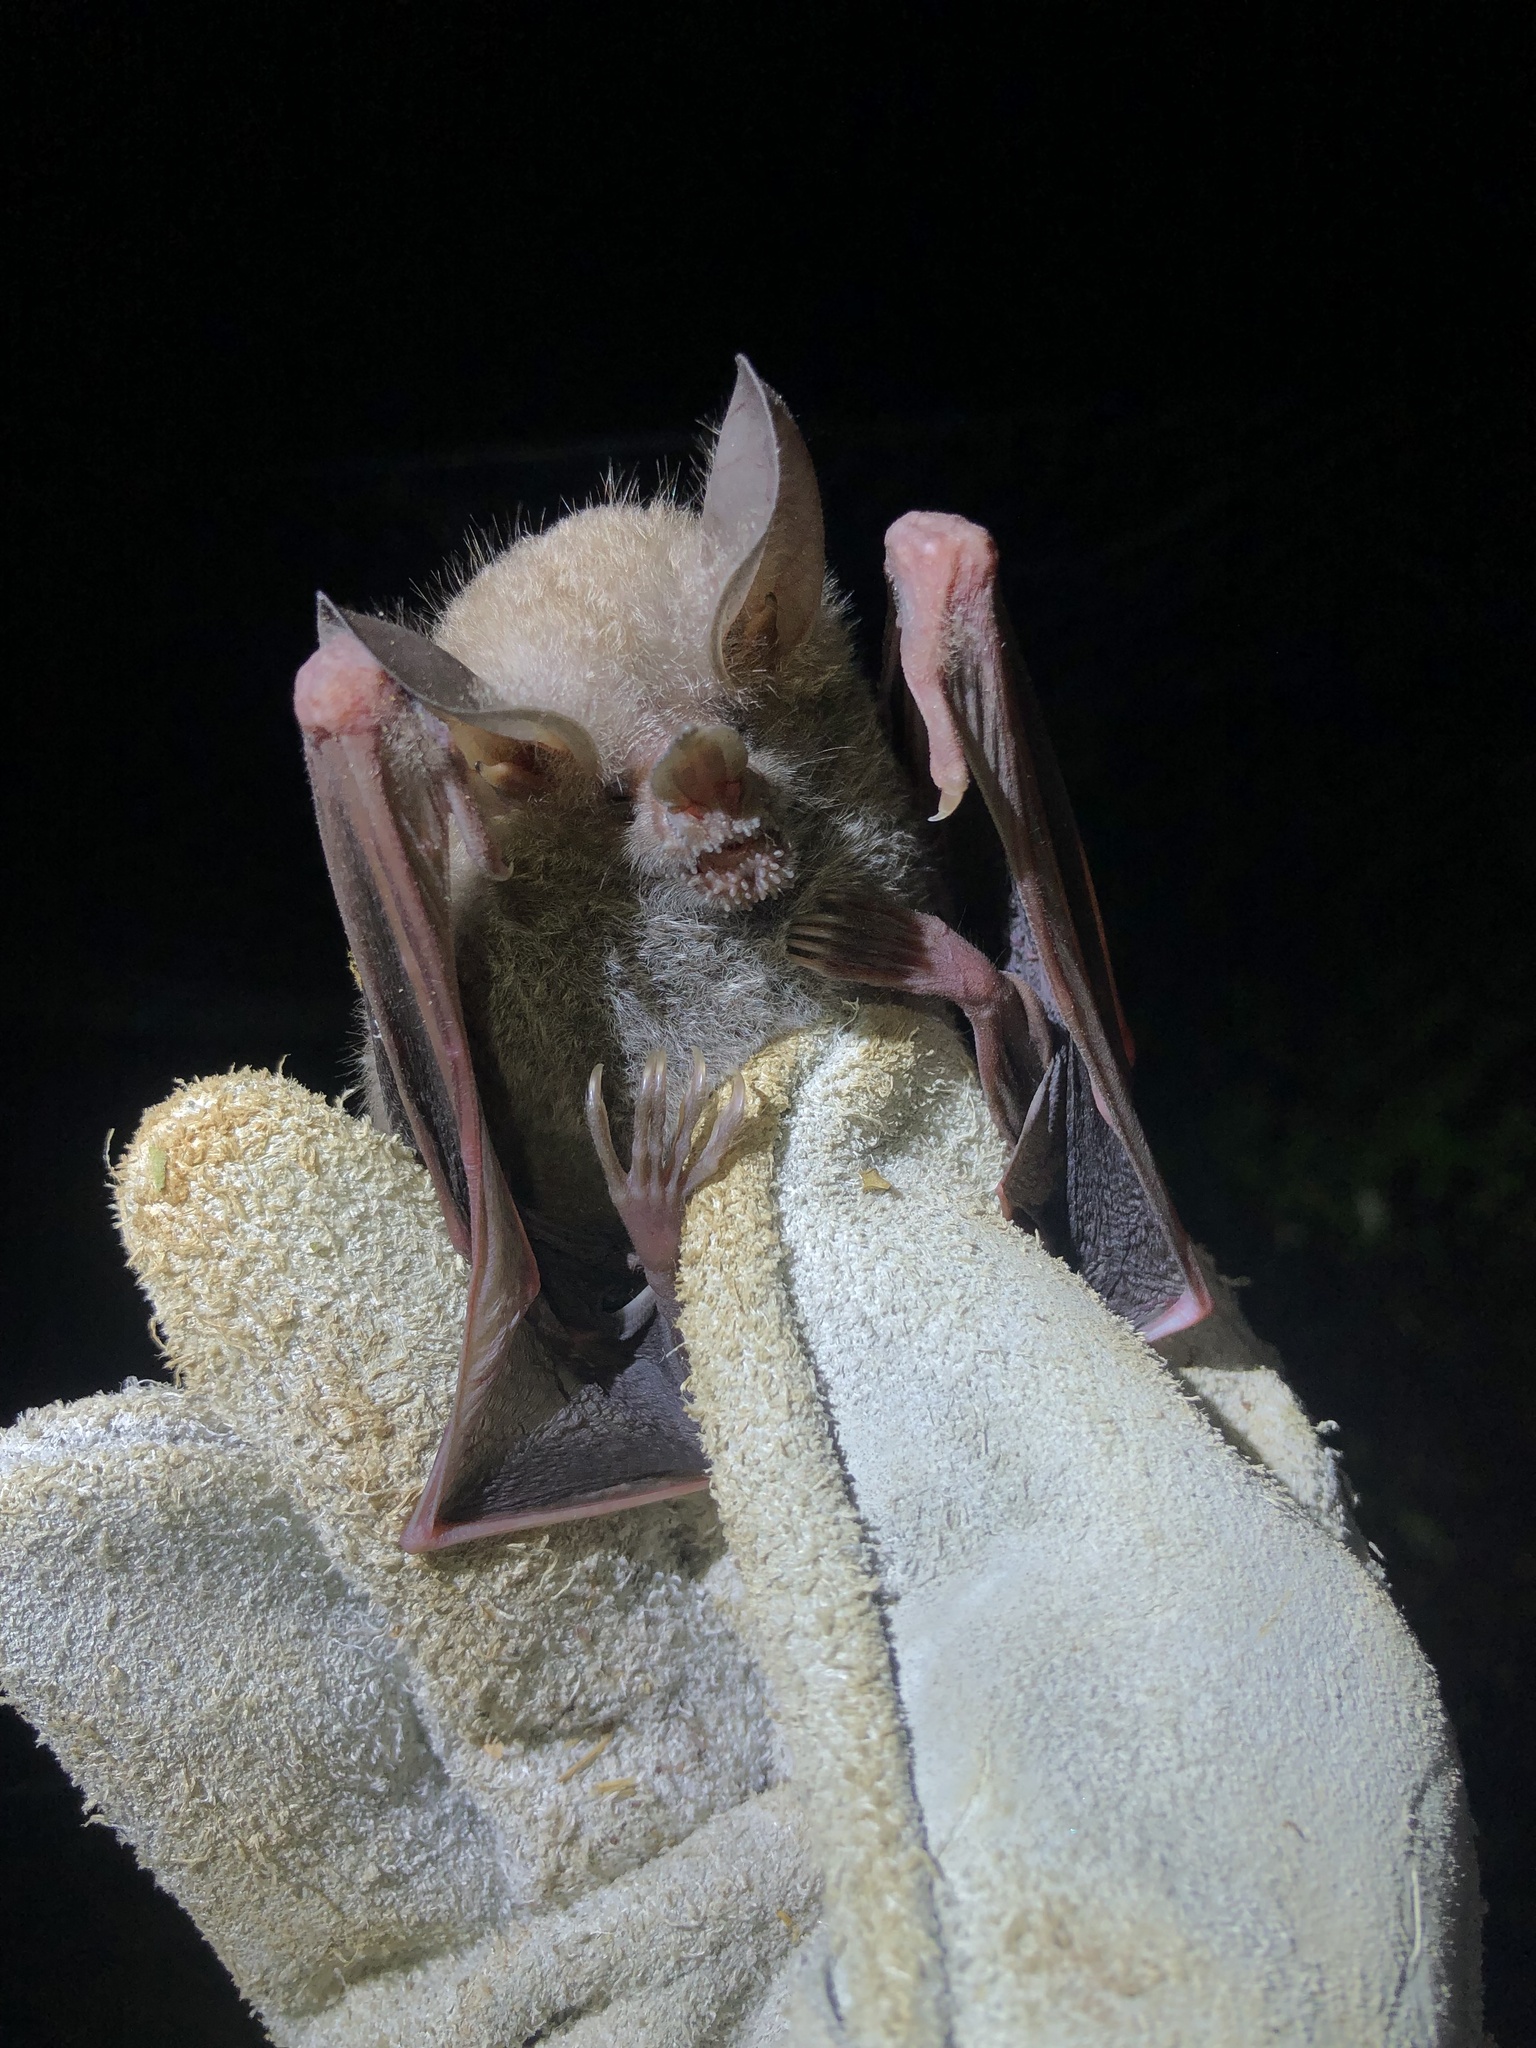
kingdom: Animalia
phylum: Chordata
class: Mammalia
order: Chiroptera
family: Phyllostomidae
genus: Trachops
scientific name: Trachops cirrhosus
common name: Fringe-lipped bat
